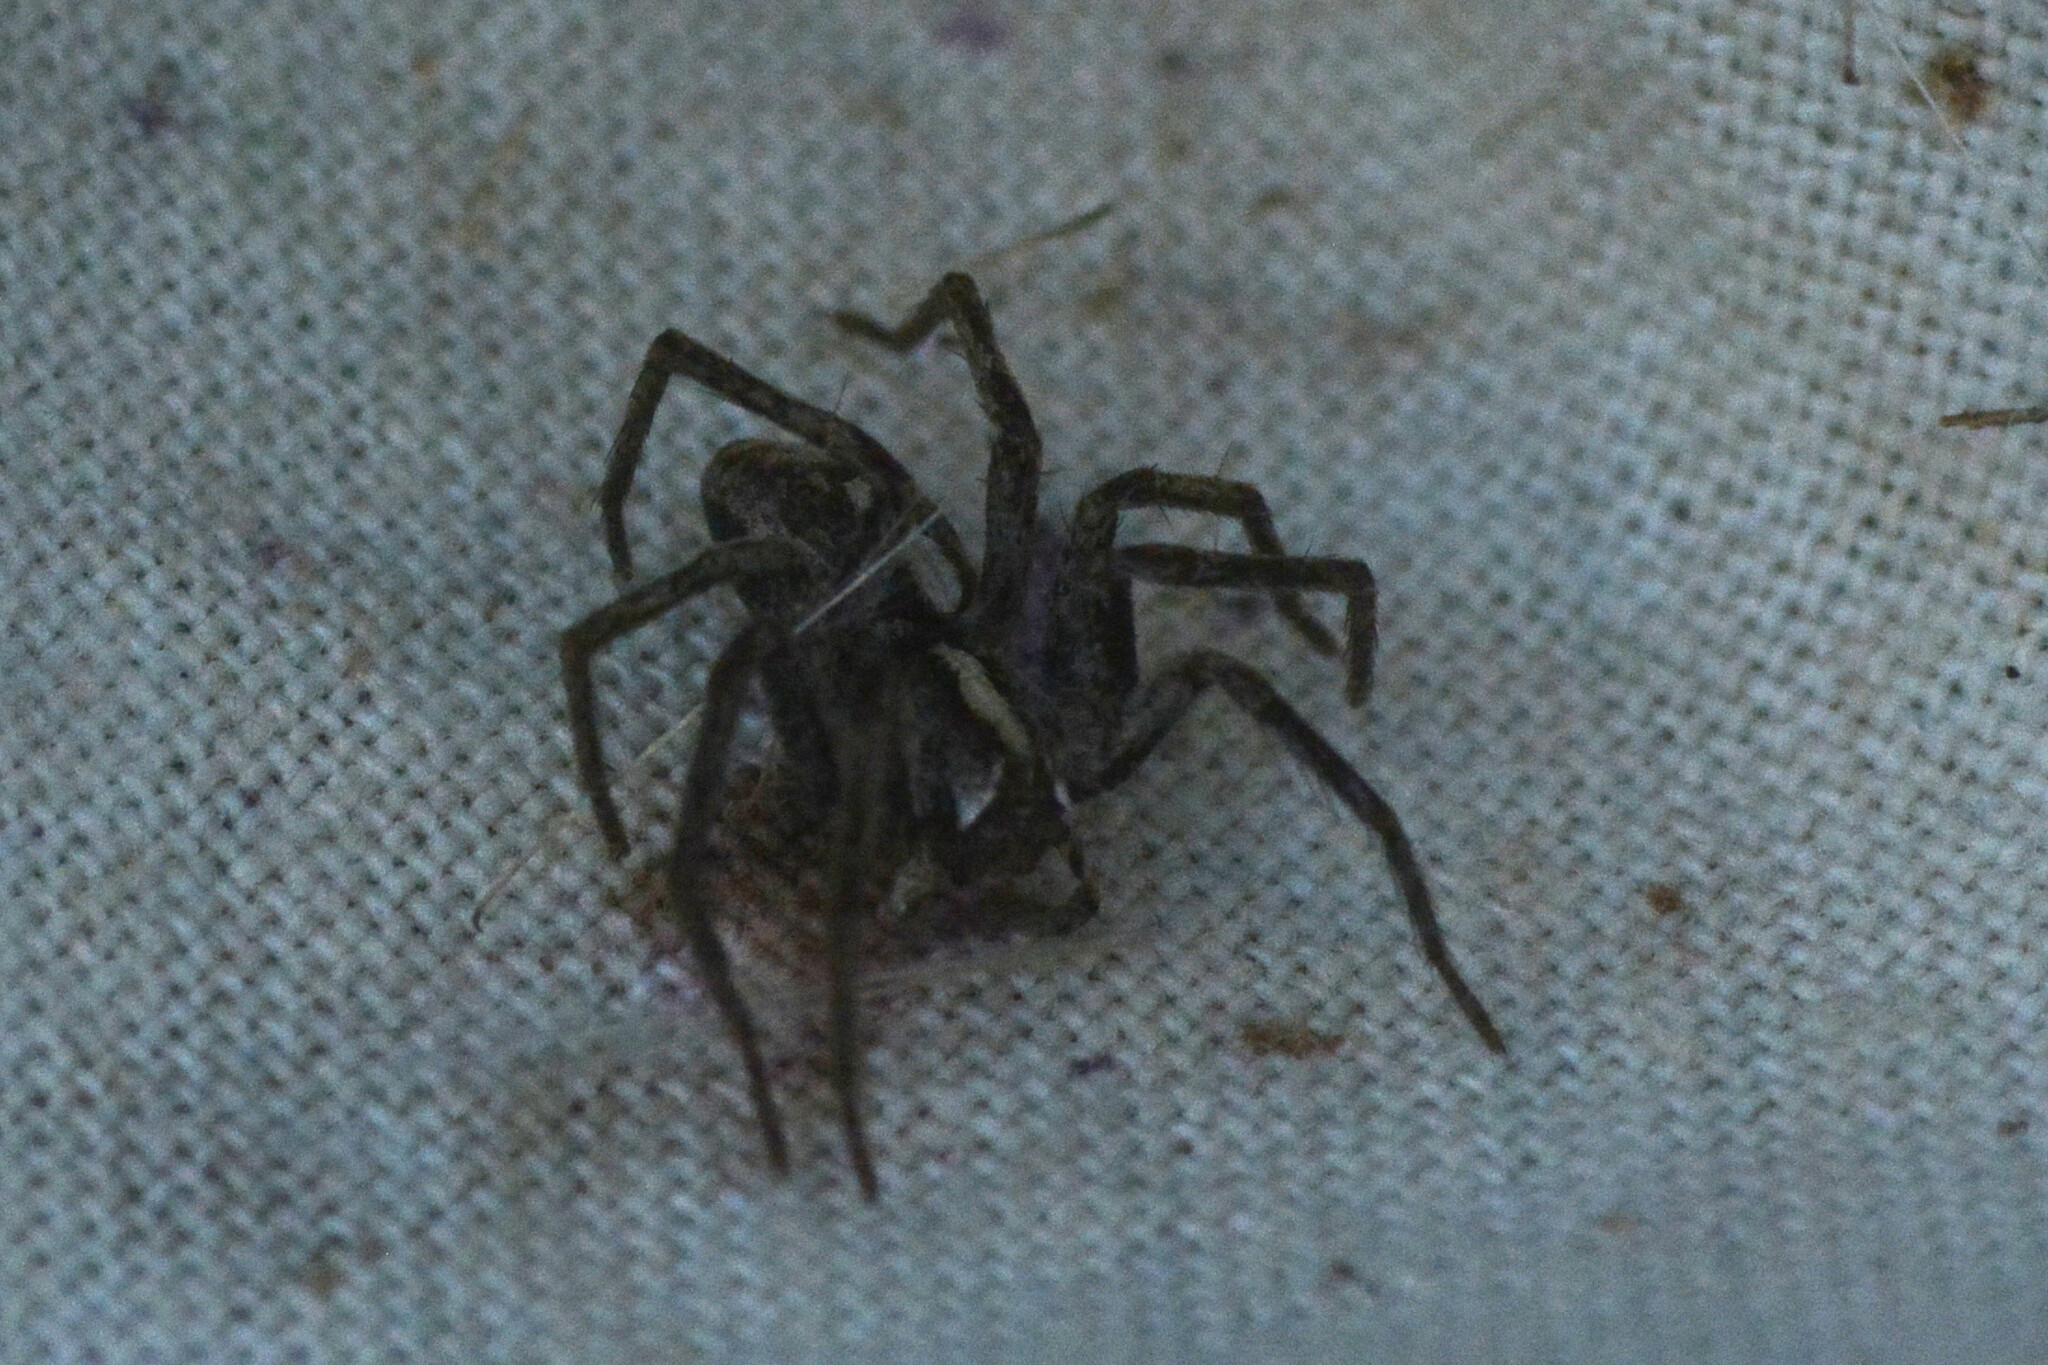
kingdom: Animalia
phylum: Arthropoda
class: Arachnida
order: Araneae
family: Pisauridae
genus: Pisaura
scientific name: Pisaura mirabilis
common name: Tent spider
